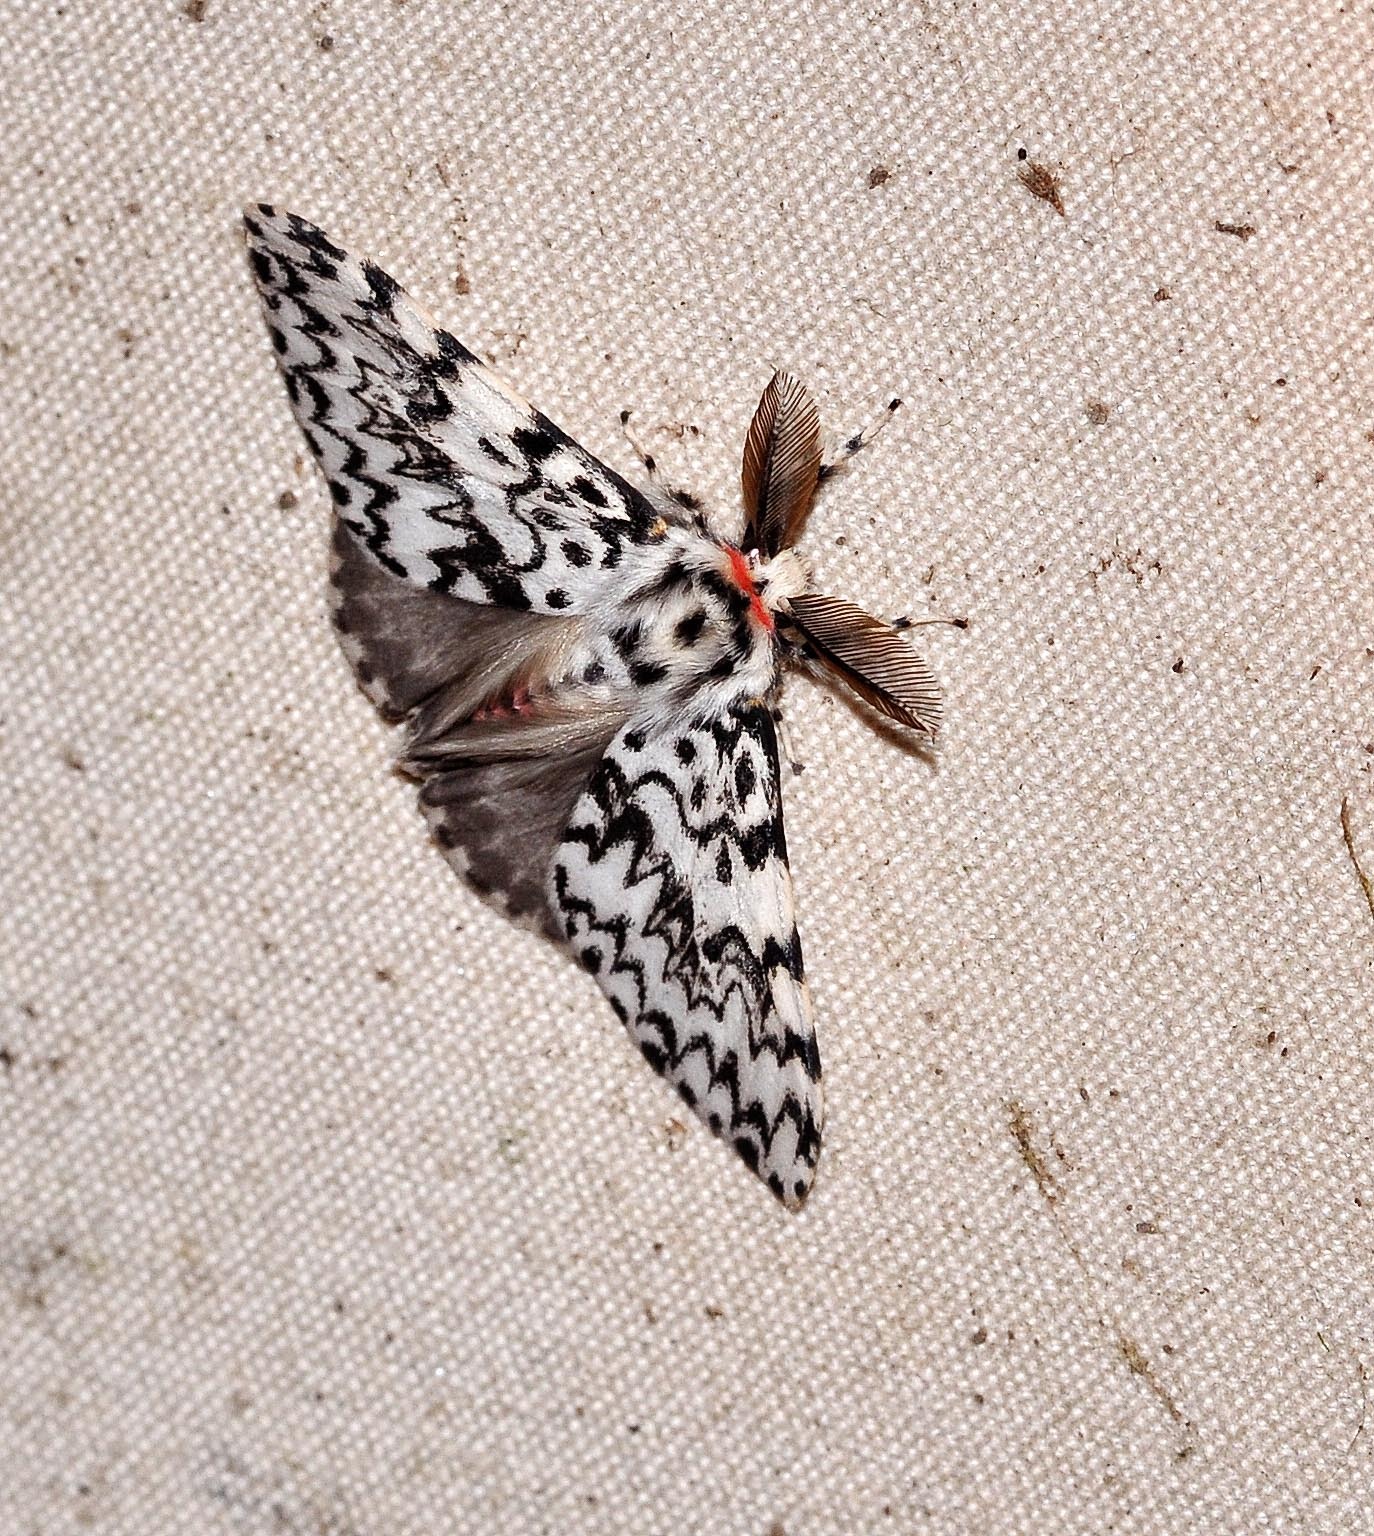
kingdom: Animalia
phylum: Arthropoda
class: Insecta
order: Lepidoptera
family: Erebidae
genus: Lymantria
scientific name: Lymantria monacha
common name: Black arches
